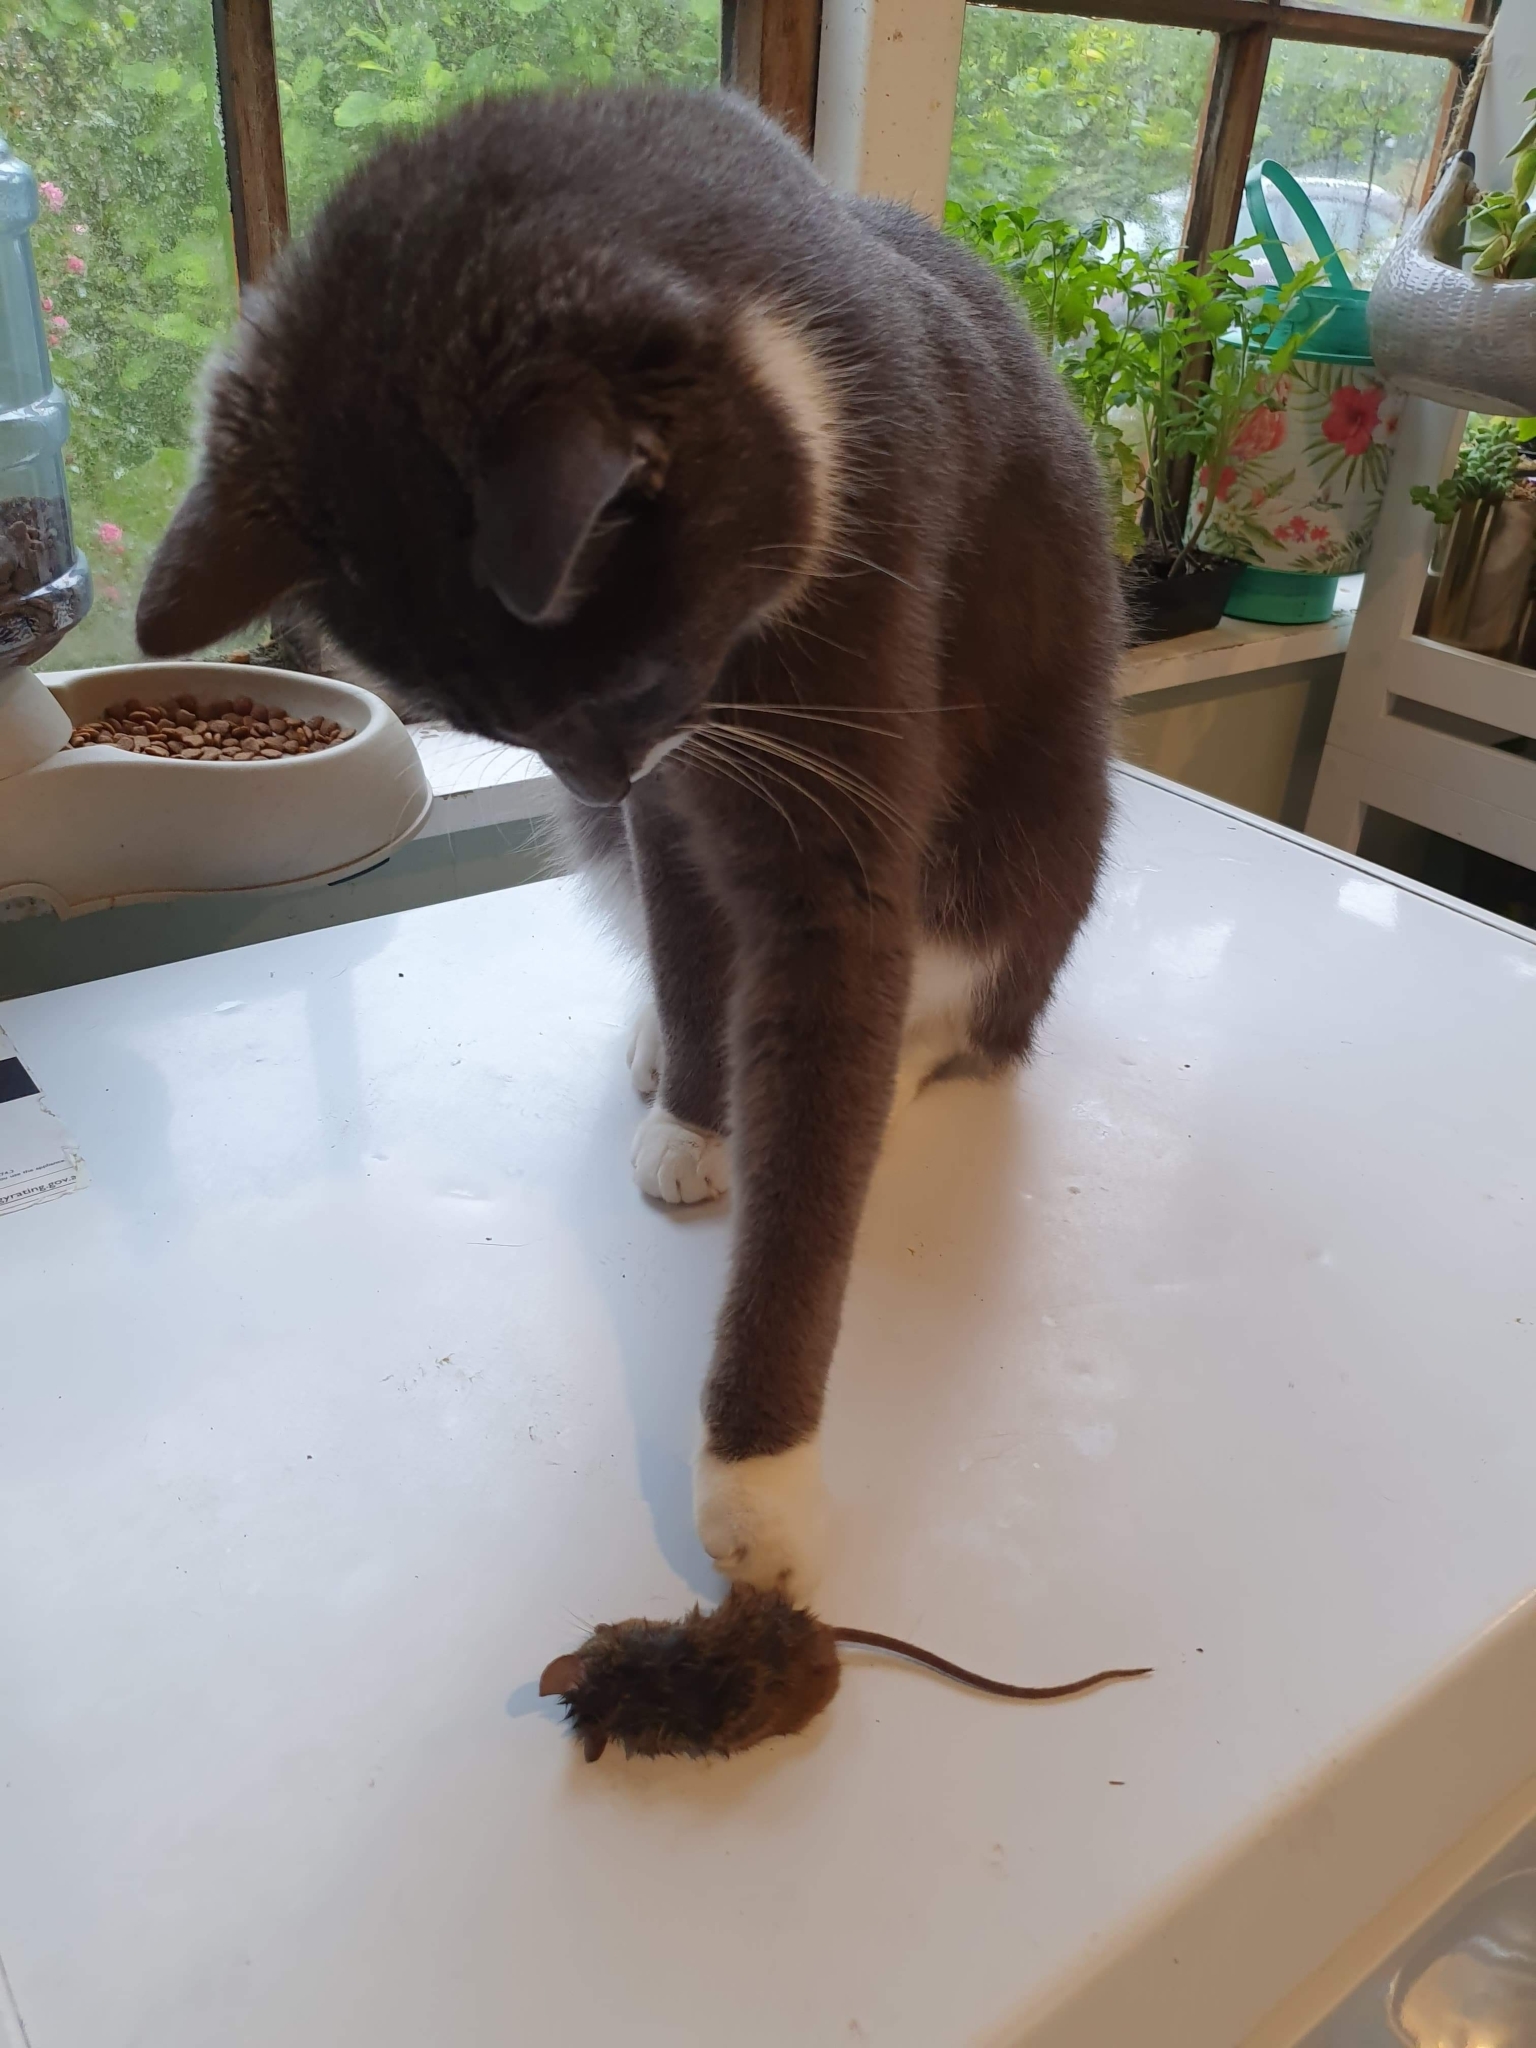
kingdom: Animalia
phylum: Chordata
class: Mammalia
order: Rodentia
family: Muridae
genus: Mus
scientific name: Mus musculus
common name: House mouse
